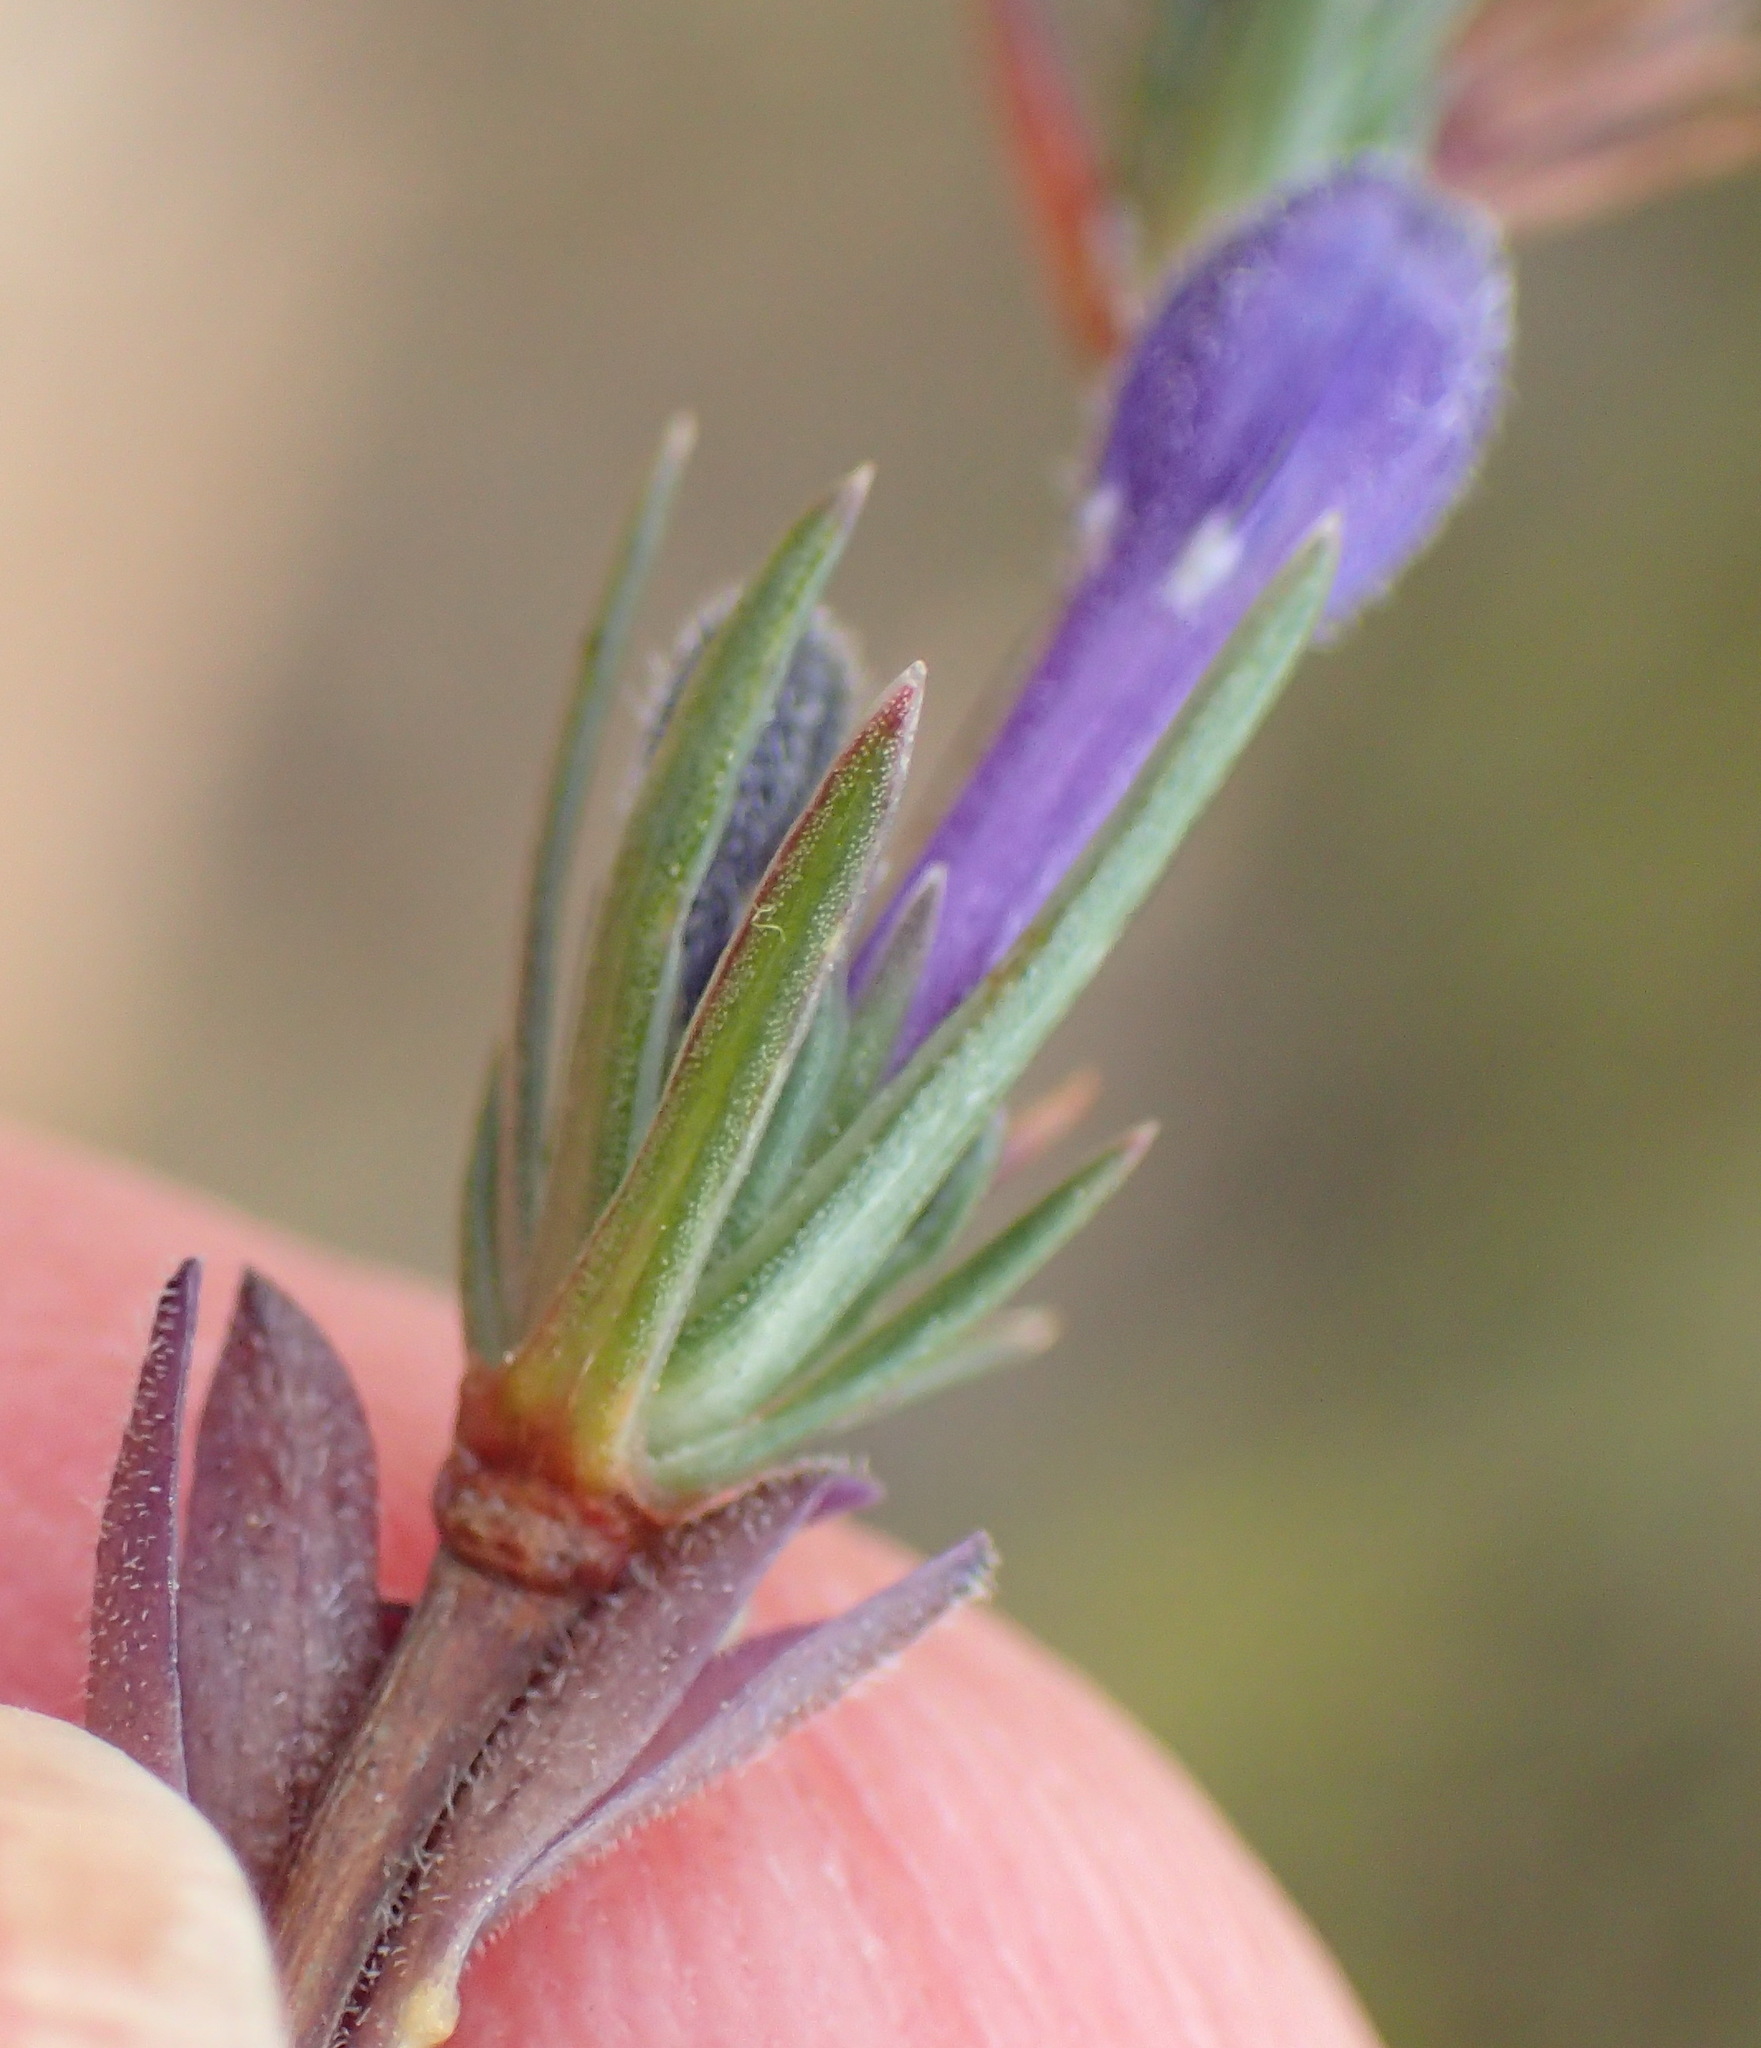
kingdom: Plantae
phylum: Tracheophyta
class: Magnoliopsida
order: Asterales
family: Campanulaceae
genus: Theilera
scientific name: Theilera guthriei
